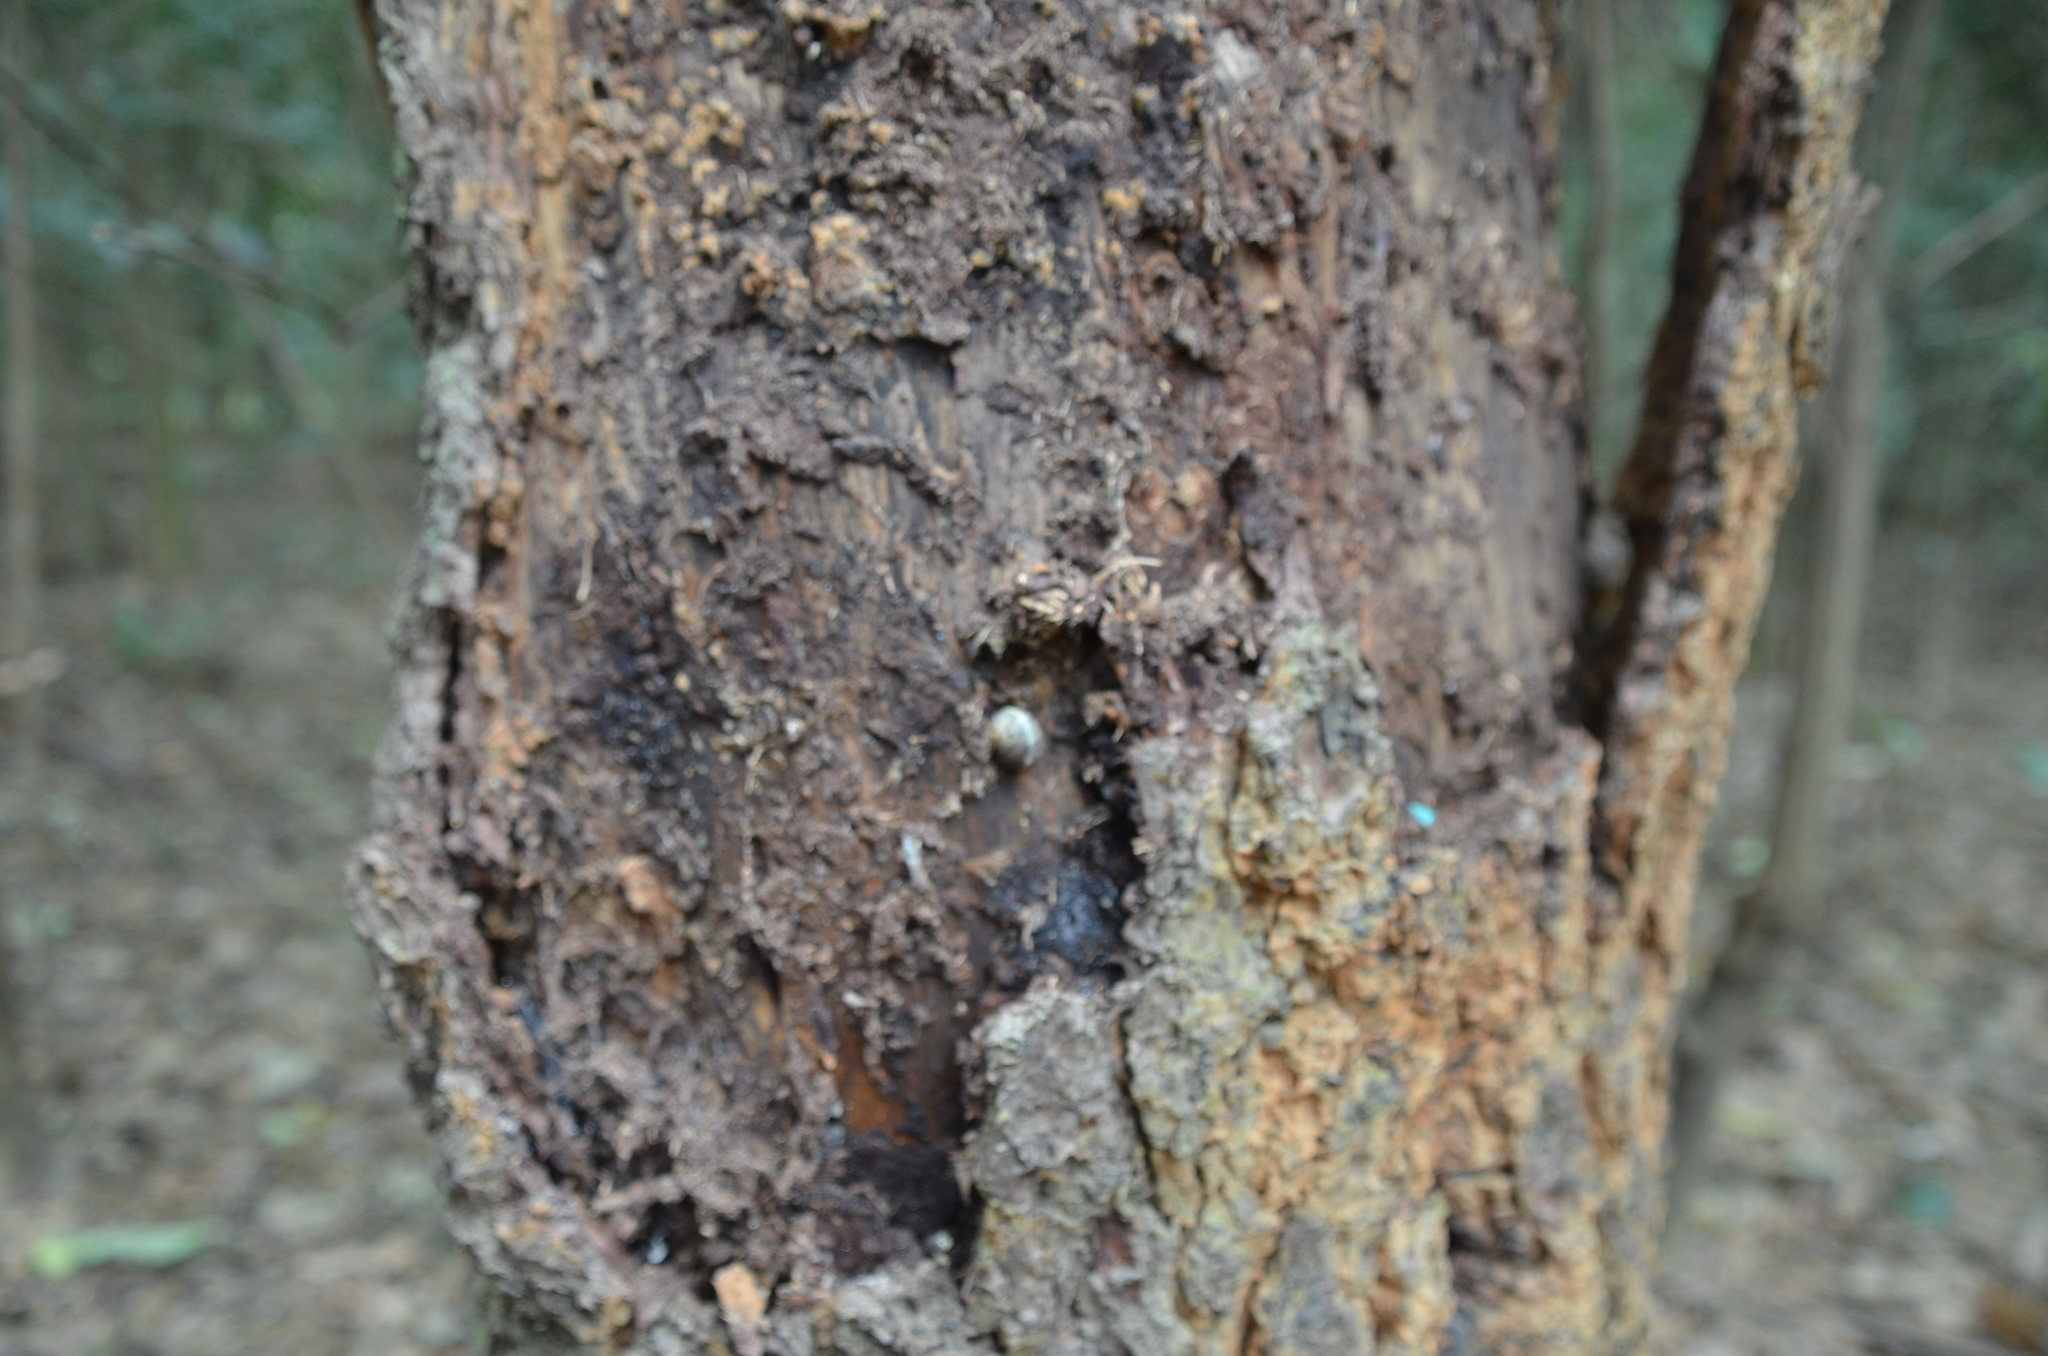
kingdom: Animalia
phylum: Mollusca
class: Gastropoda
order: Stylommatophora
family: Helicidae
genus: Cornu
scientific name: Cornu aspersum
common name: Brown garden snail
